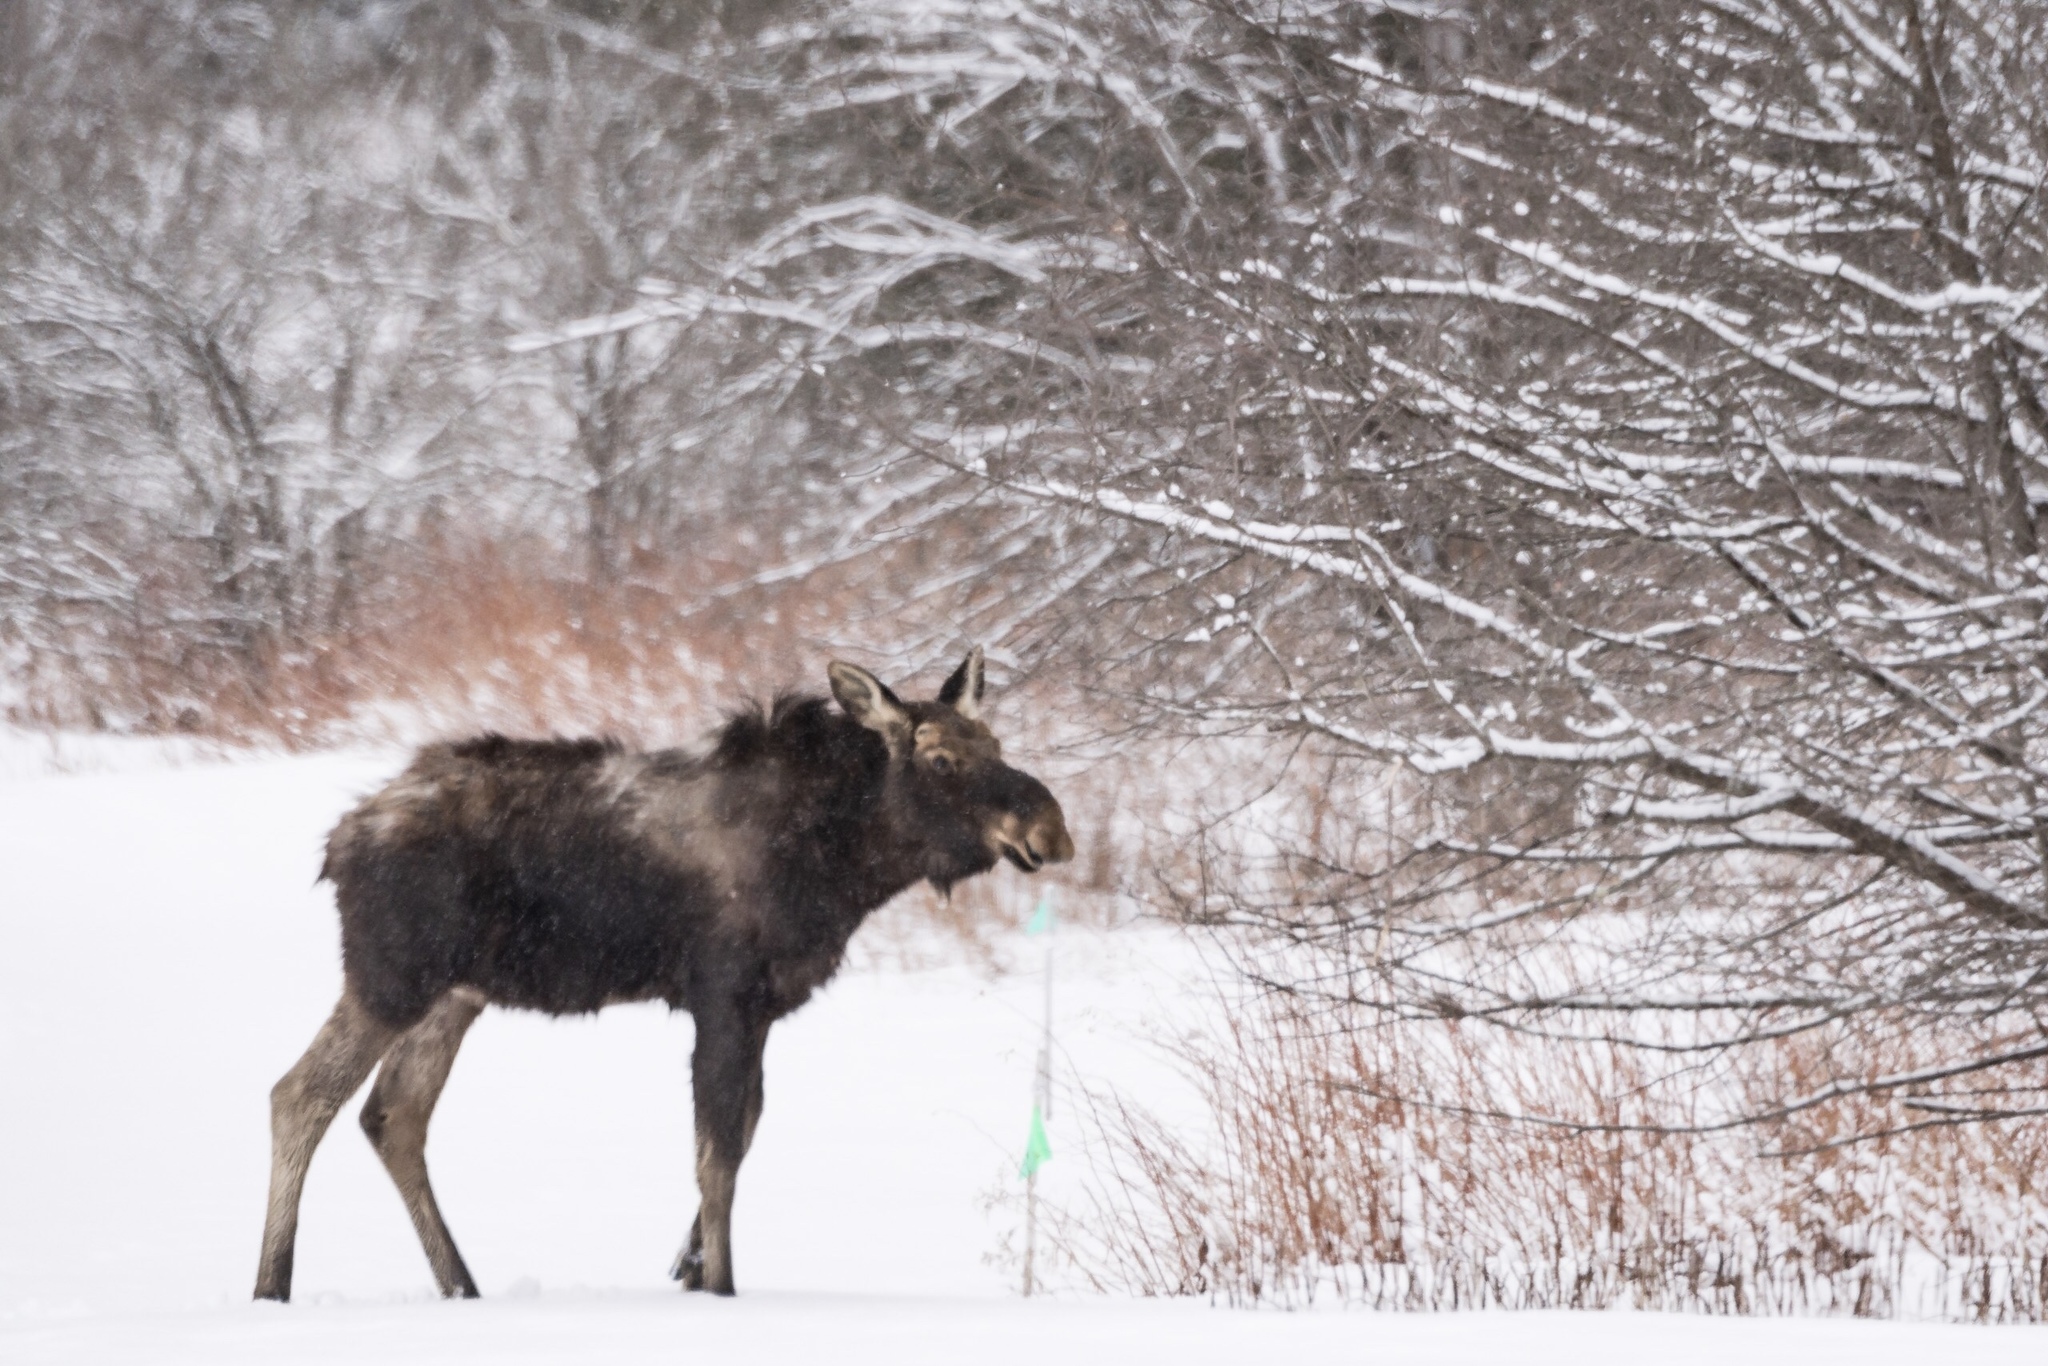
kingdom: Animalia
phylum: Chordata
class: Mammalia
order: Artiodactyla
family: Cervidae
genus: Alces
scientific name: Alces alces
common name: Moose
